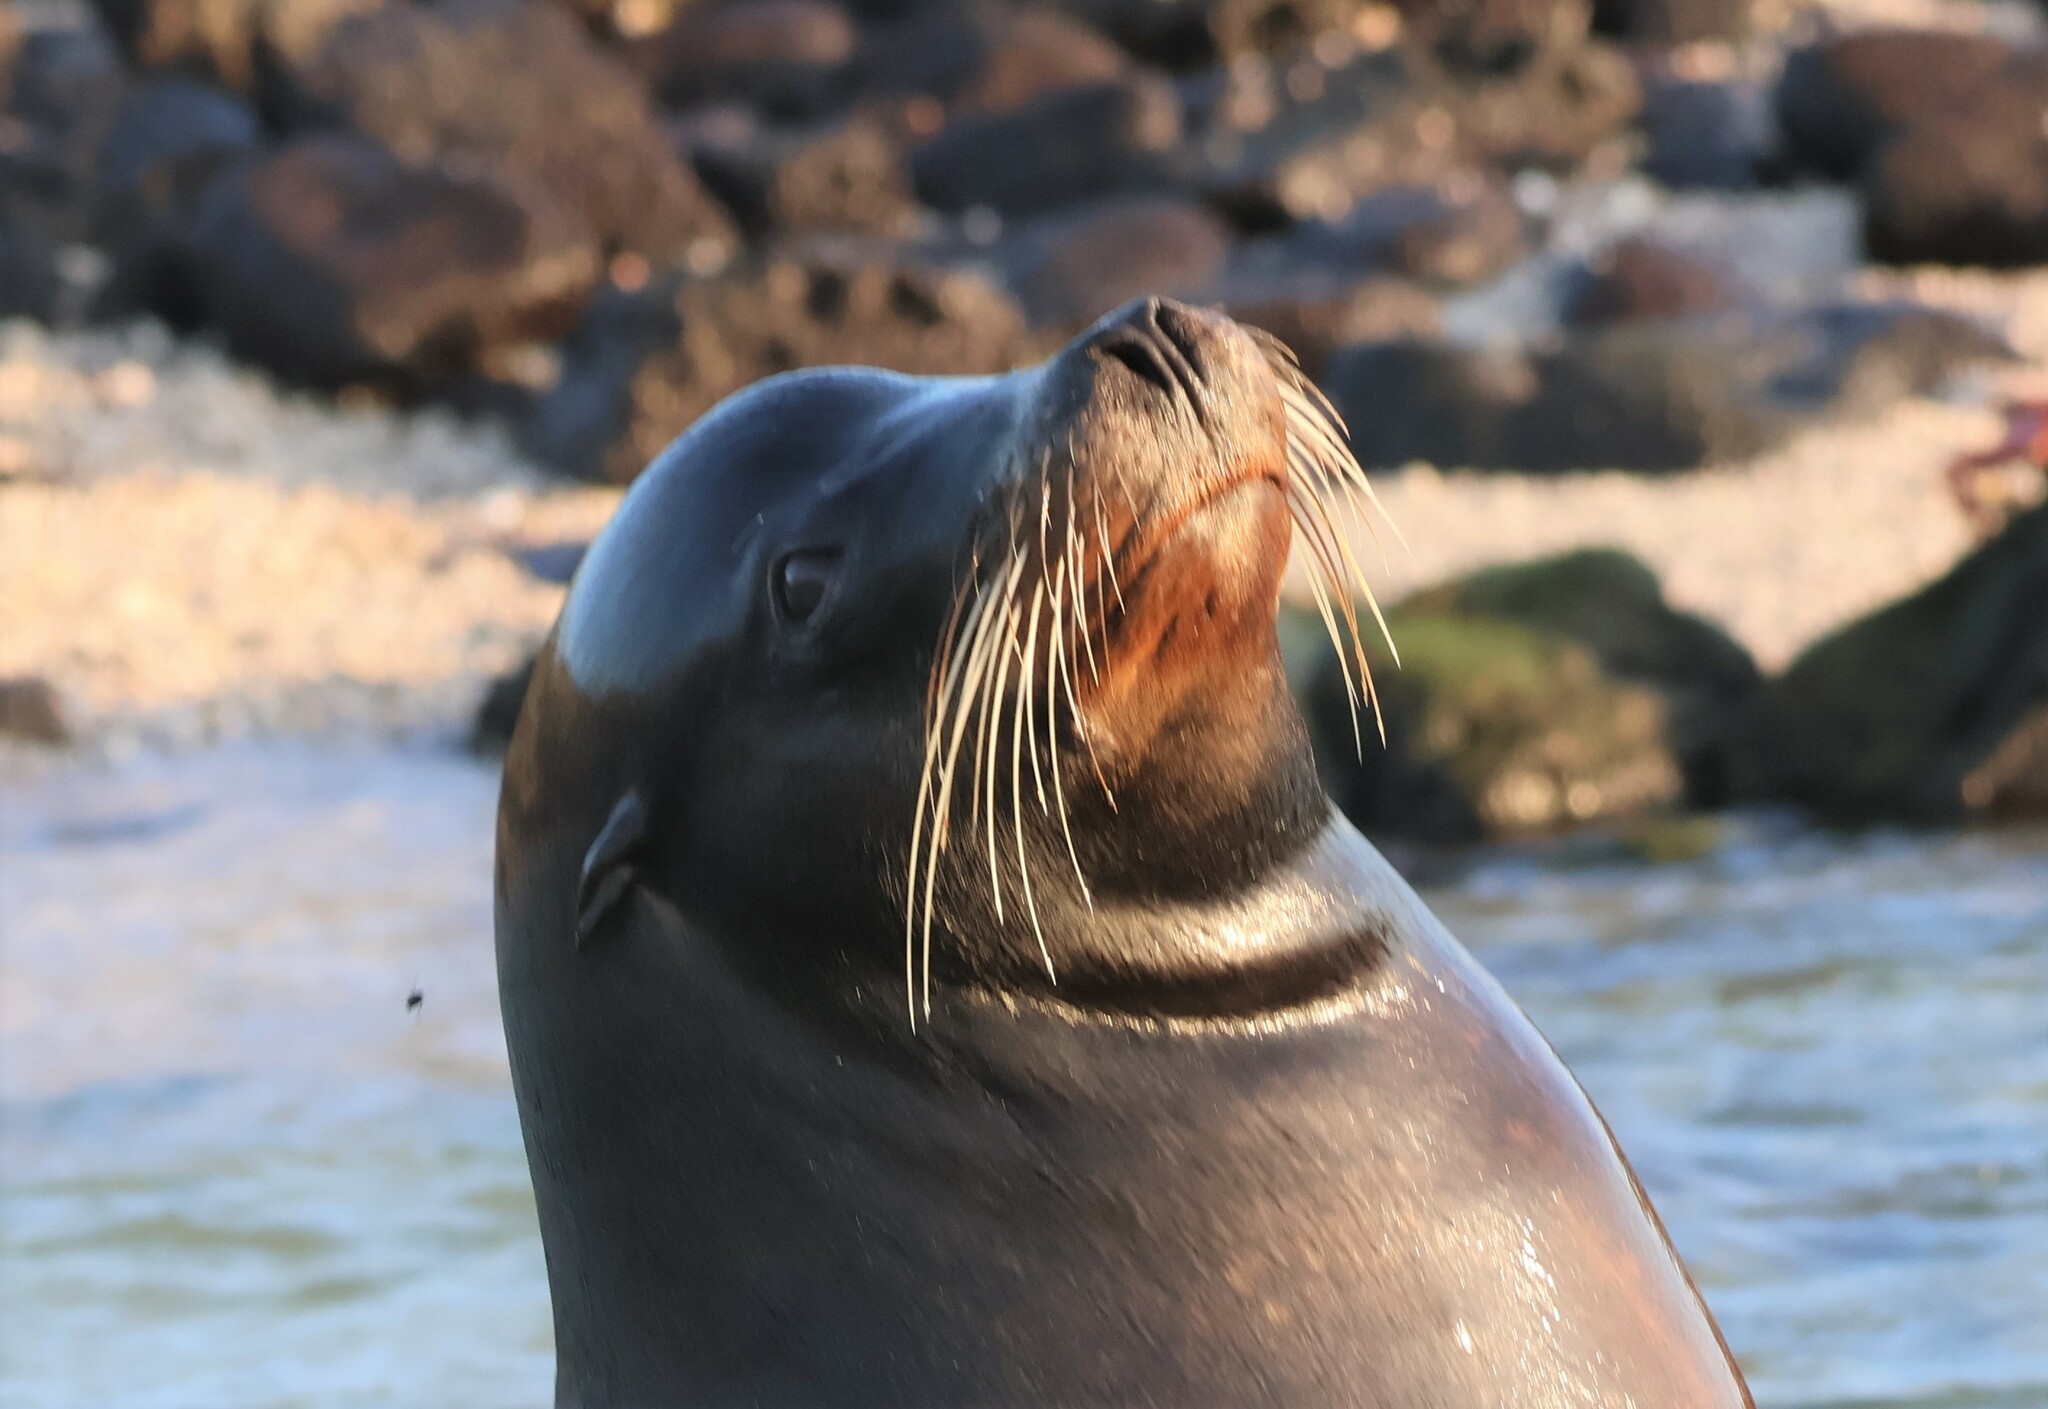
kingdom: Animalia
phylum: Chordata
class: Mammalia
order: Carnivora
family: Otariidae
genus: Zalophus
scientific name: Zalophus wollebaeki
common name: Galapagos sea lion
